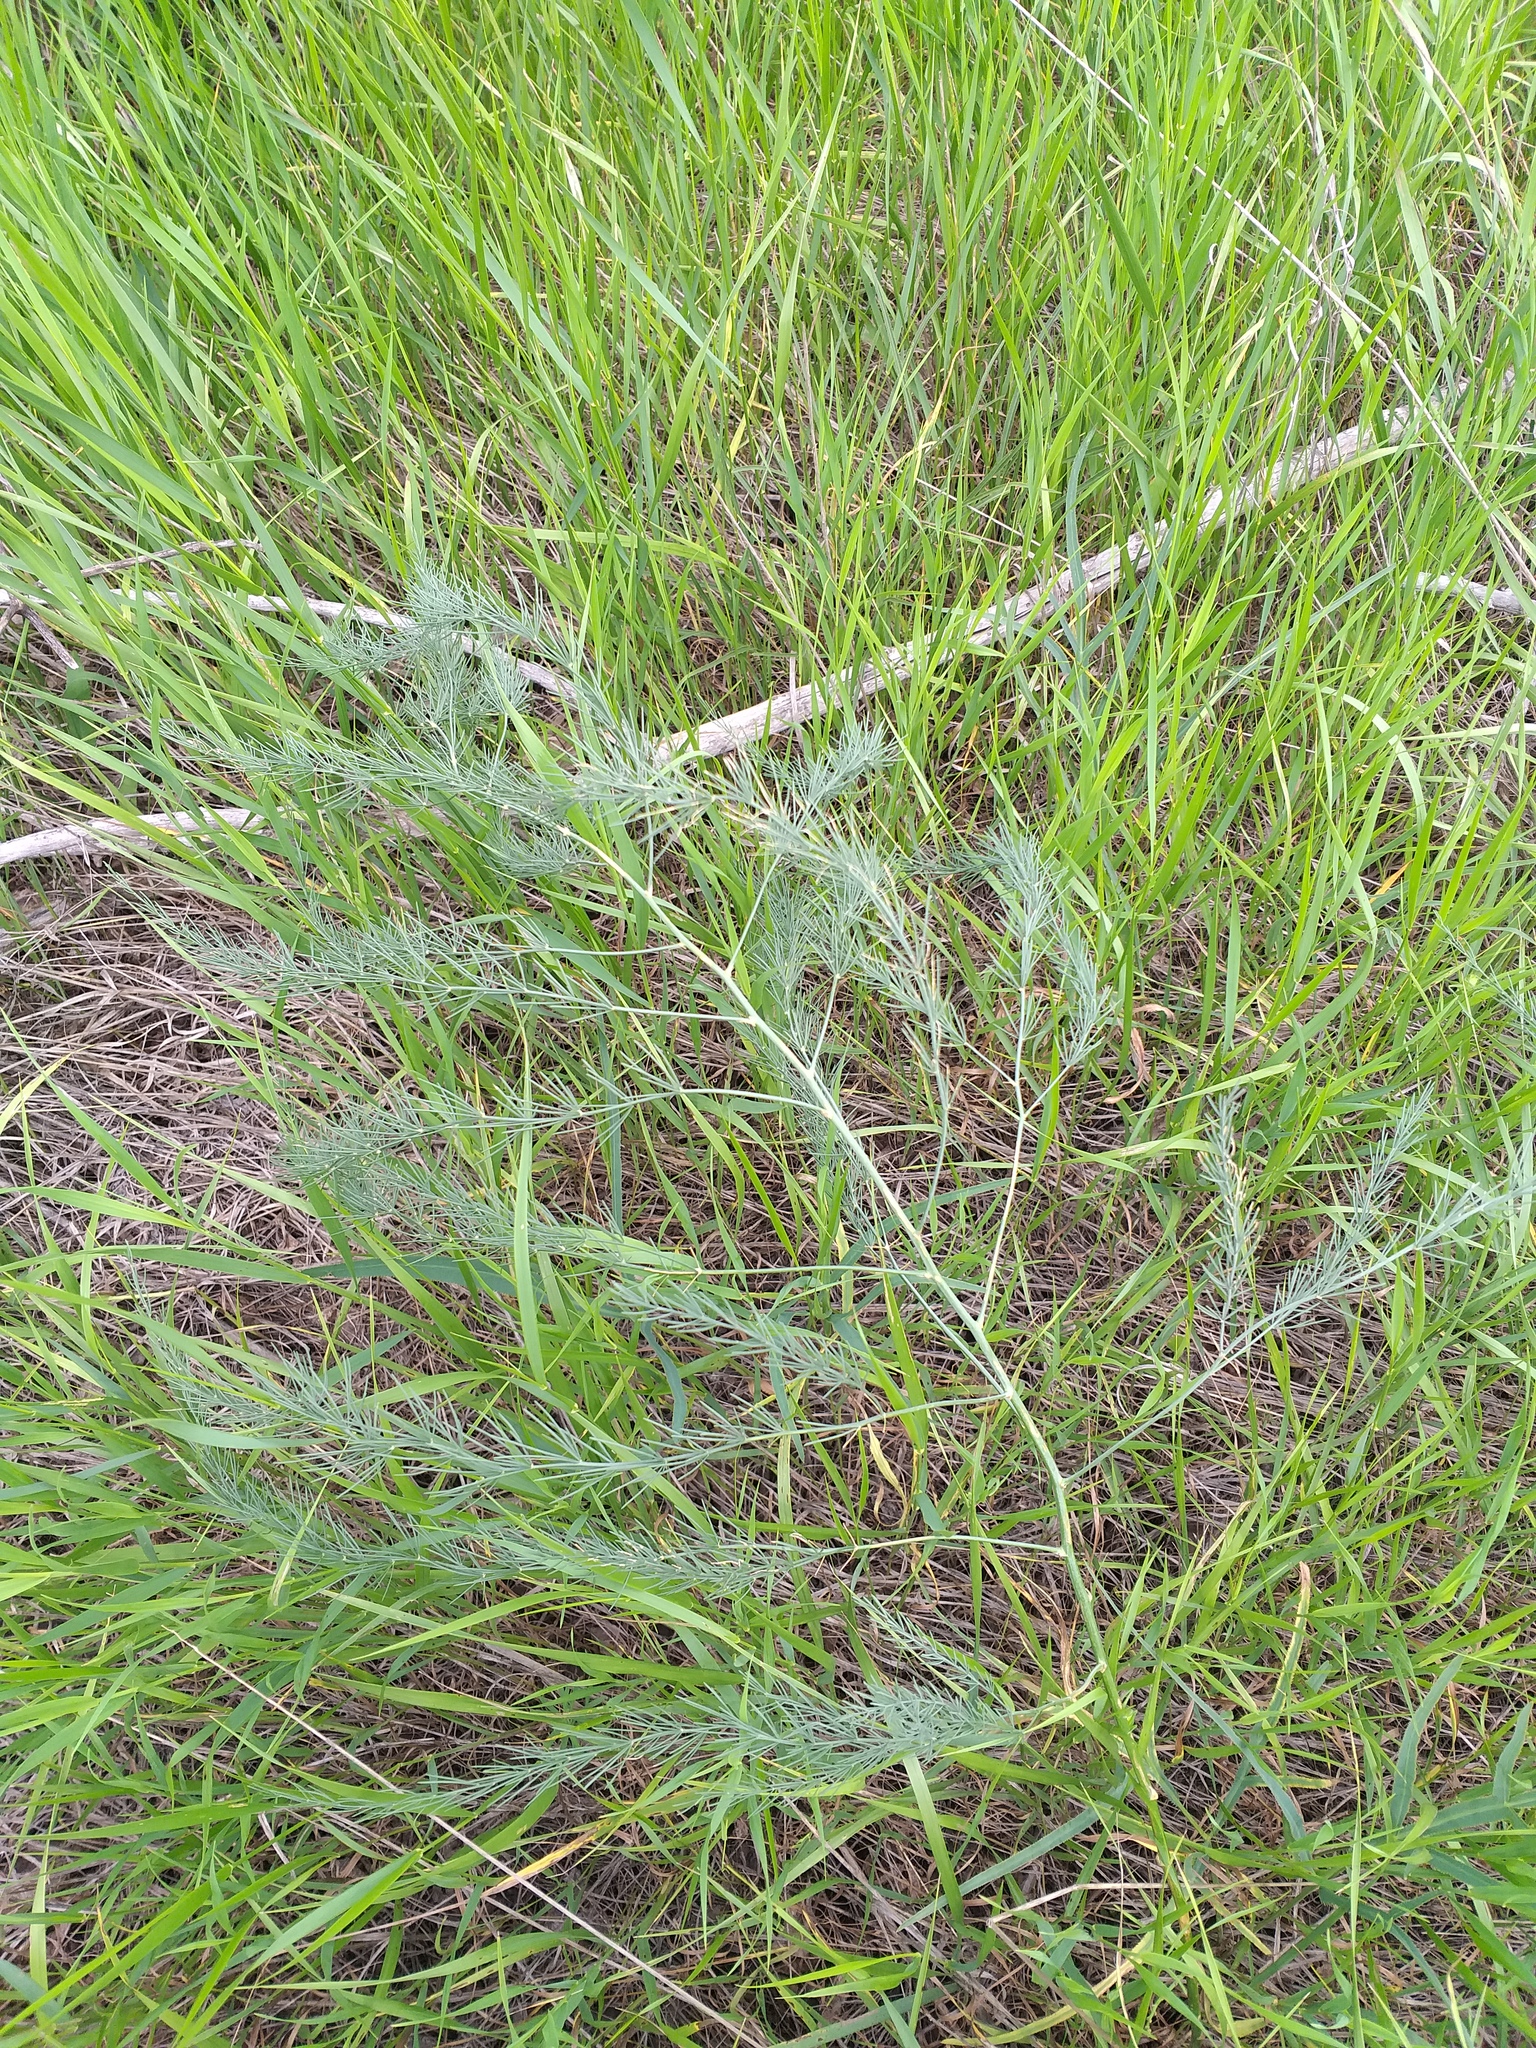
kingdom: Plantae
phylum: Tracheophyta
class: Liliopsida
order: Asparagales
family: Asparagaceae
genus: Asparagus
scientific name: Asparagus officinalis
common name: Garden asparagus
